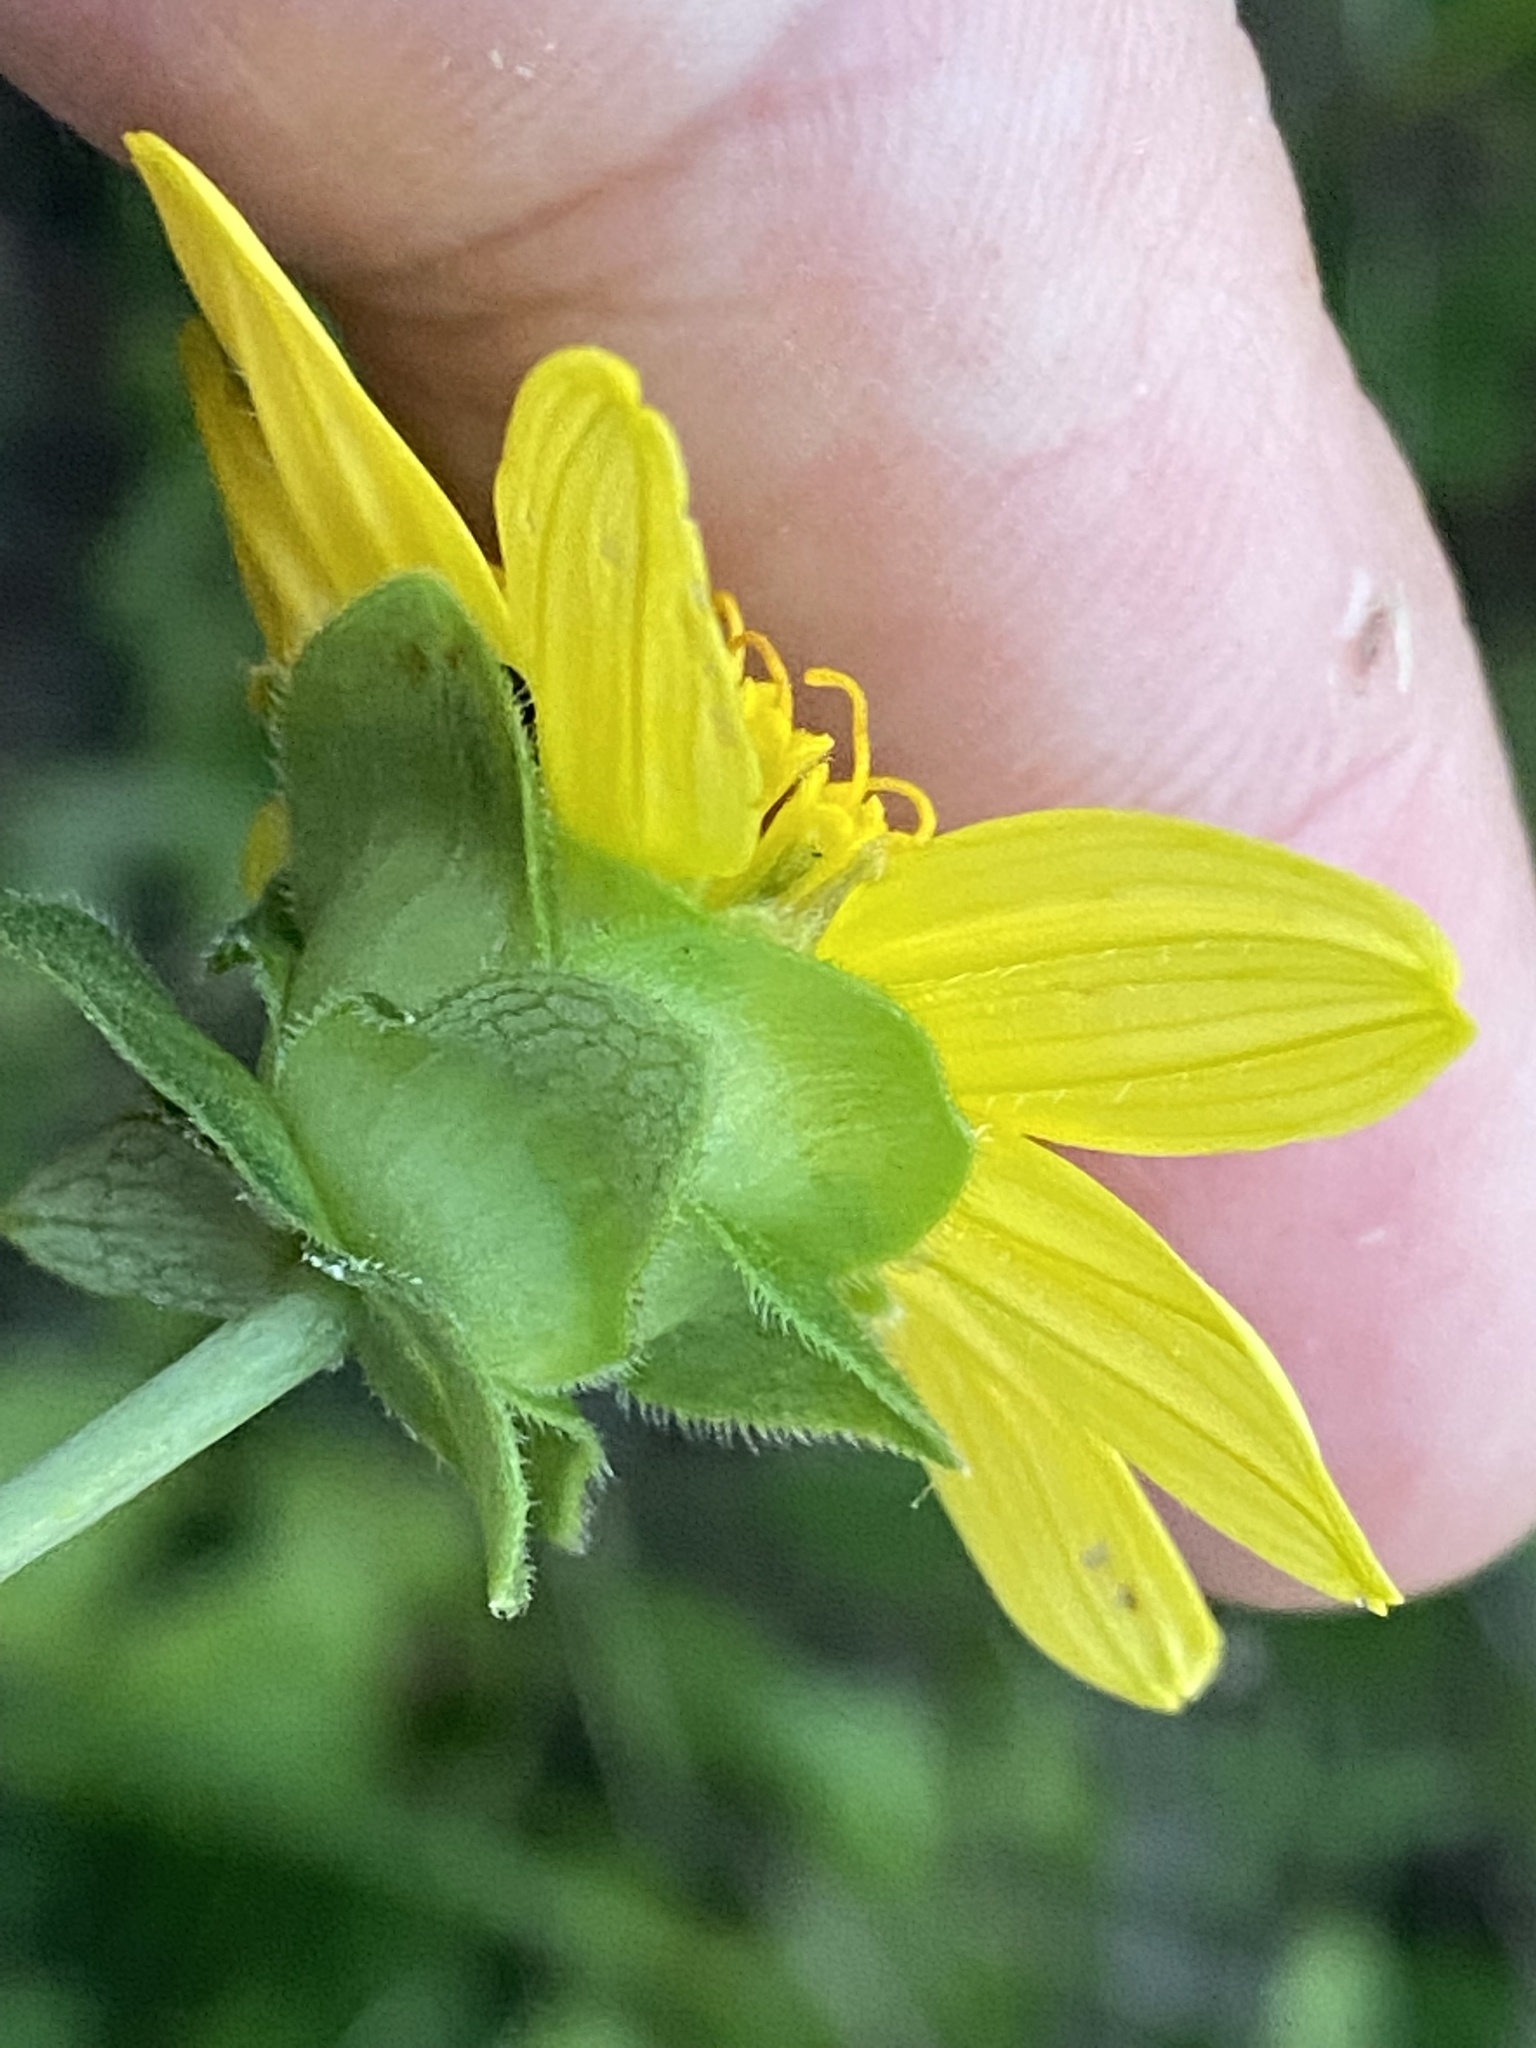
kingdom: Plantae
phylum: Tracheophyta
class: Magnoliopsida
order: Asterales
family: Asteraceae
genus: Silphium
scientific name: Silphium brachiatum
